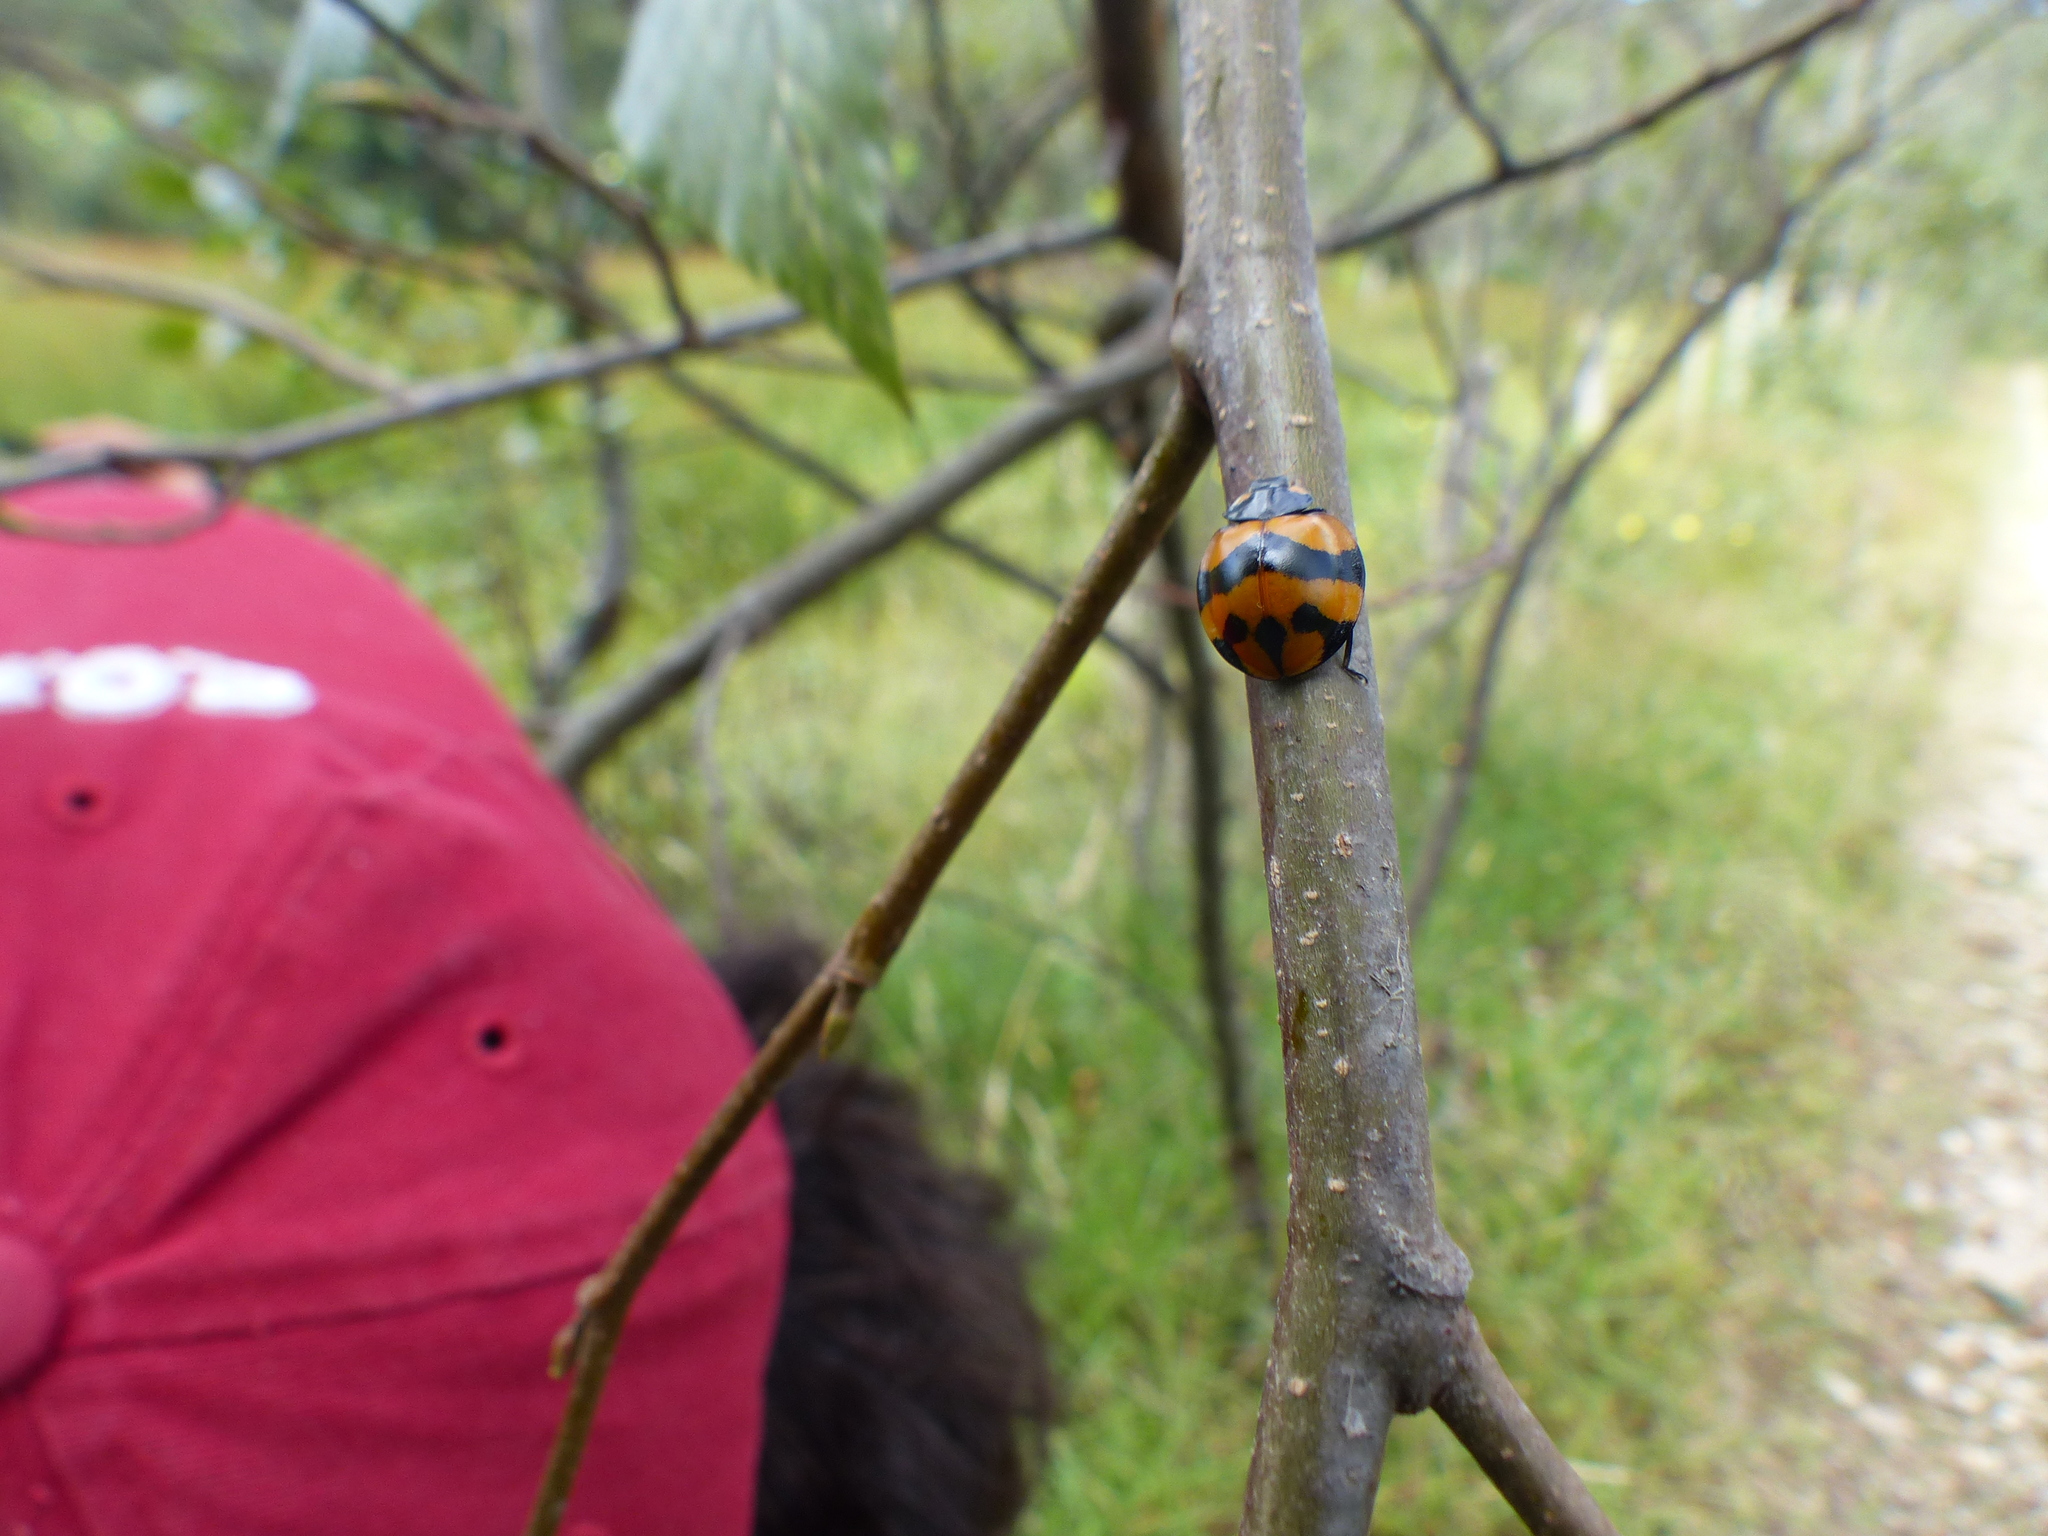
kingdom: Animalia
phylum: Arthropoda
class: Insecta
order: Coleoptera
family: Coccinellidae
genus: Neda
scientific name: Neda norrisi
